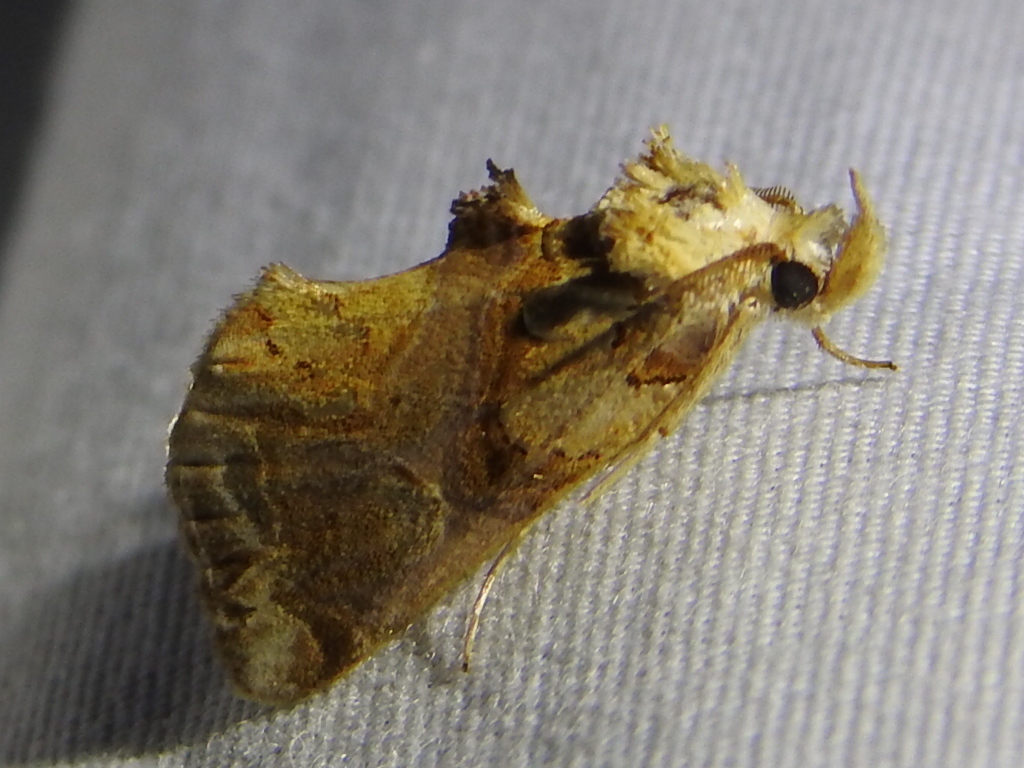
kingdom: Animalia
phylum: Arthropoda
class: Insecta
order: Lepidoptera
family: Erebidae
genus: Plusiodonta
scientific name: Plusiodonta compressipalpis
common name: Moonseed moth
